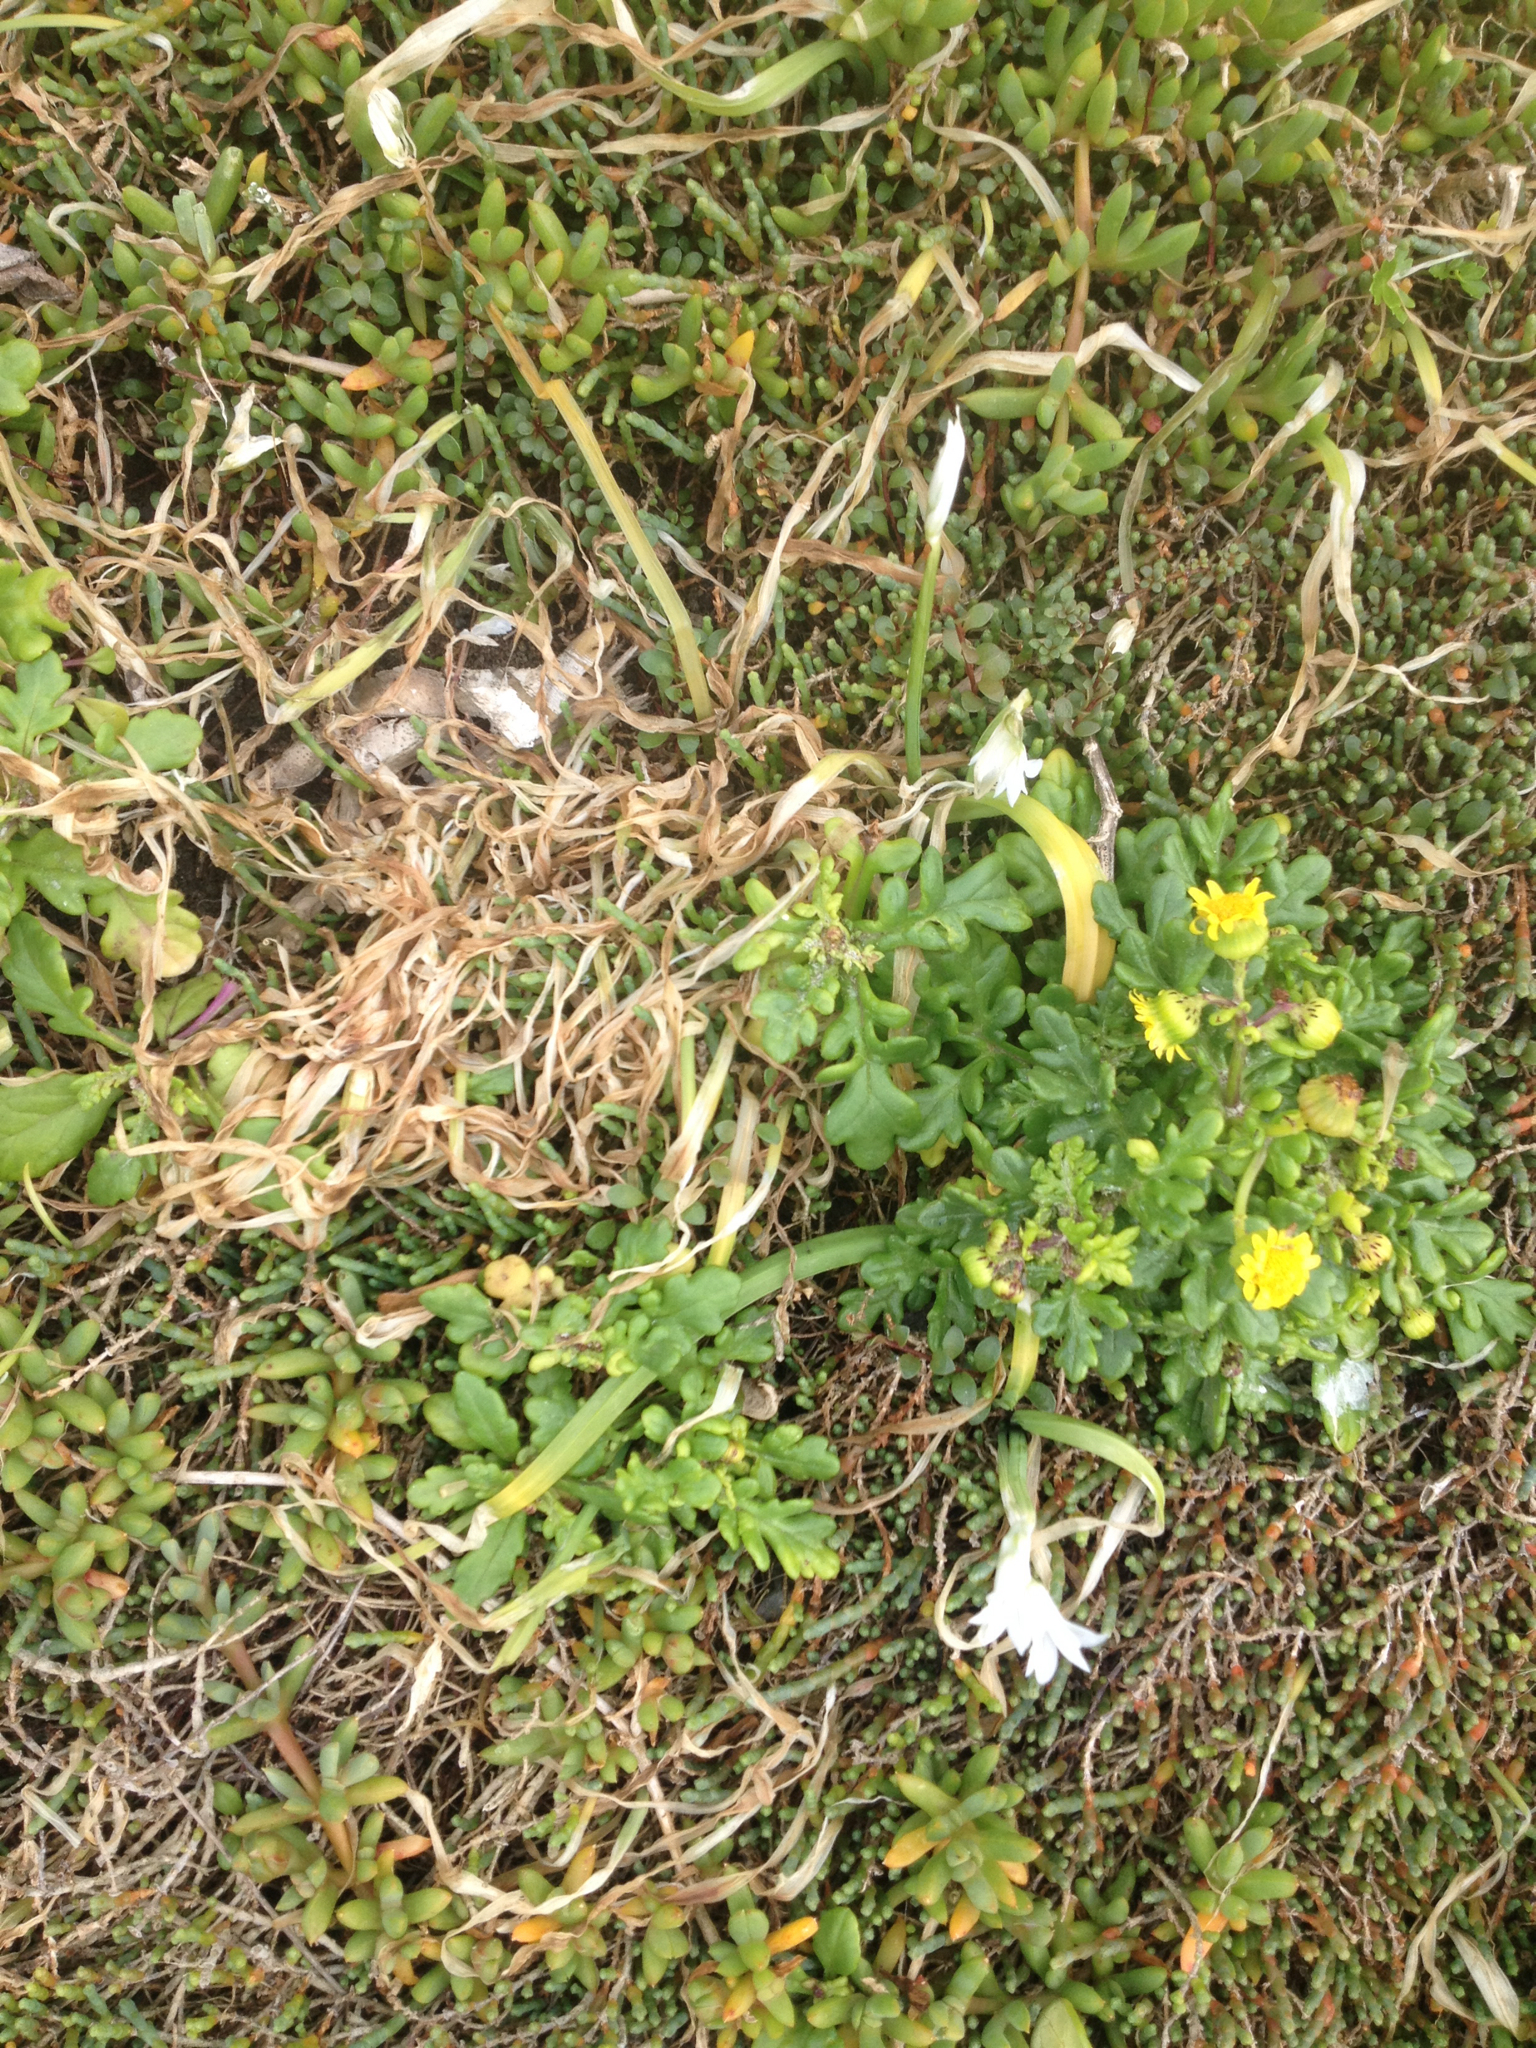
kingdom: Plantae
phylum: Tracheophyta
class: Liliopsida
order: Asparagales
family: Amaryllidaceae
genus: Allium
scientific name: Allium triquetrum
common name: Three-cornered garlic
